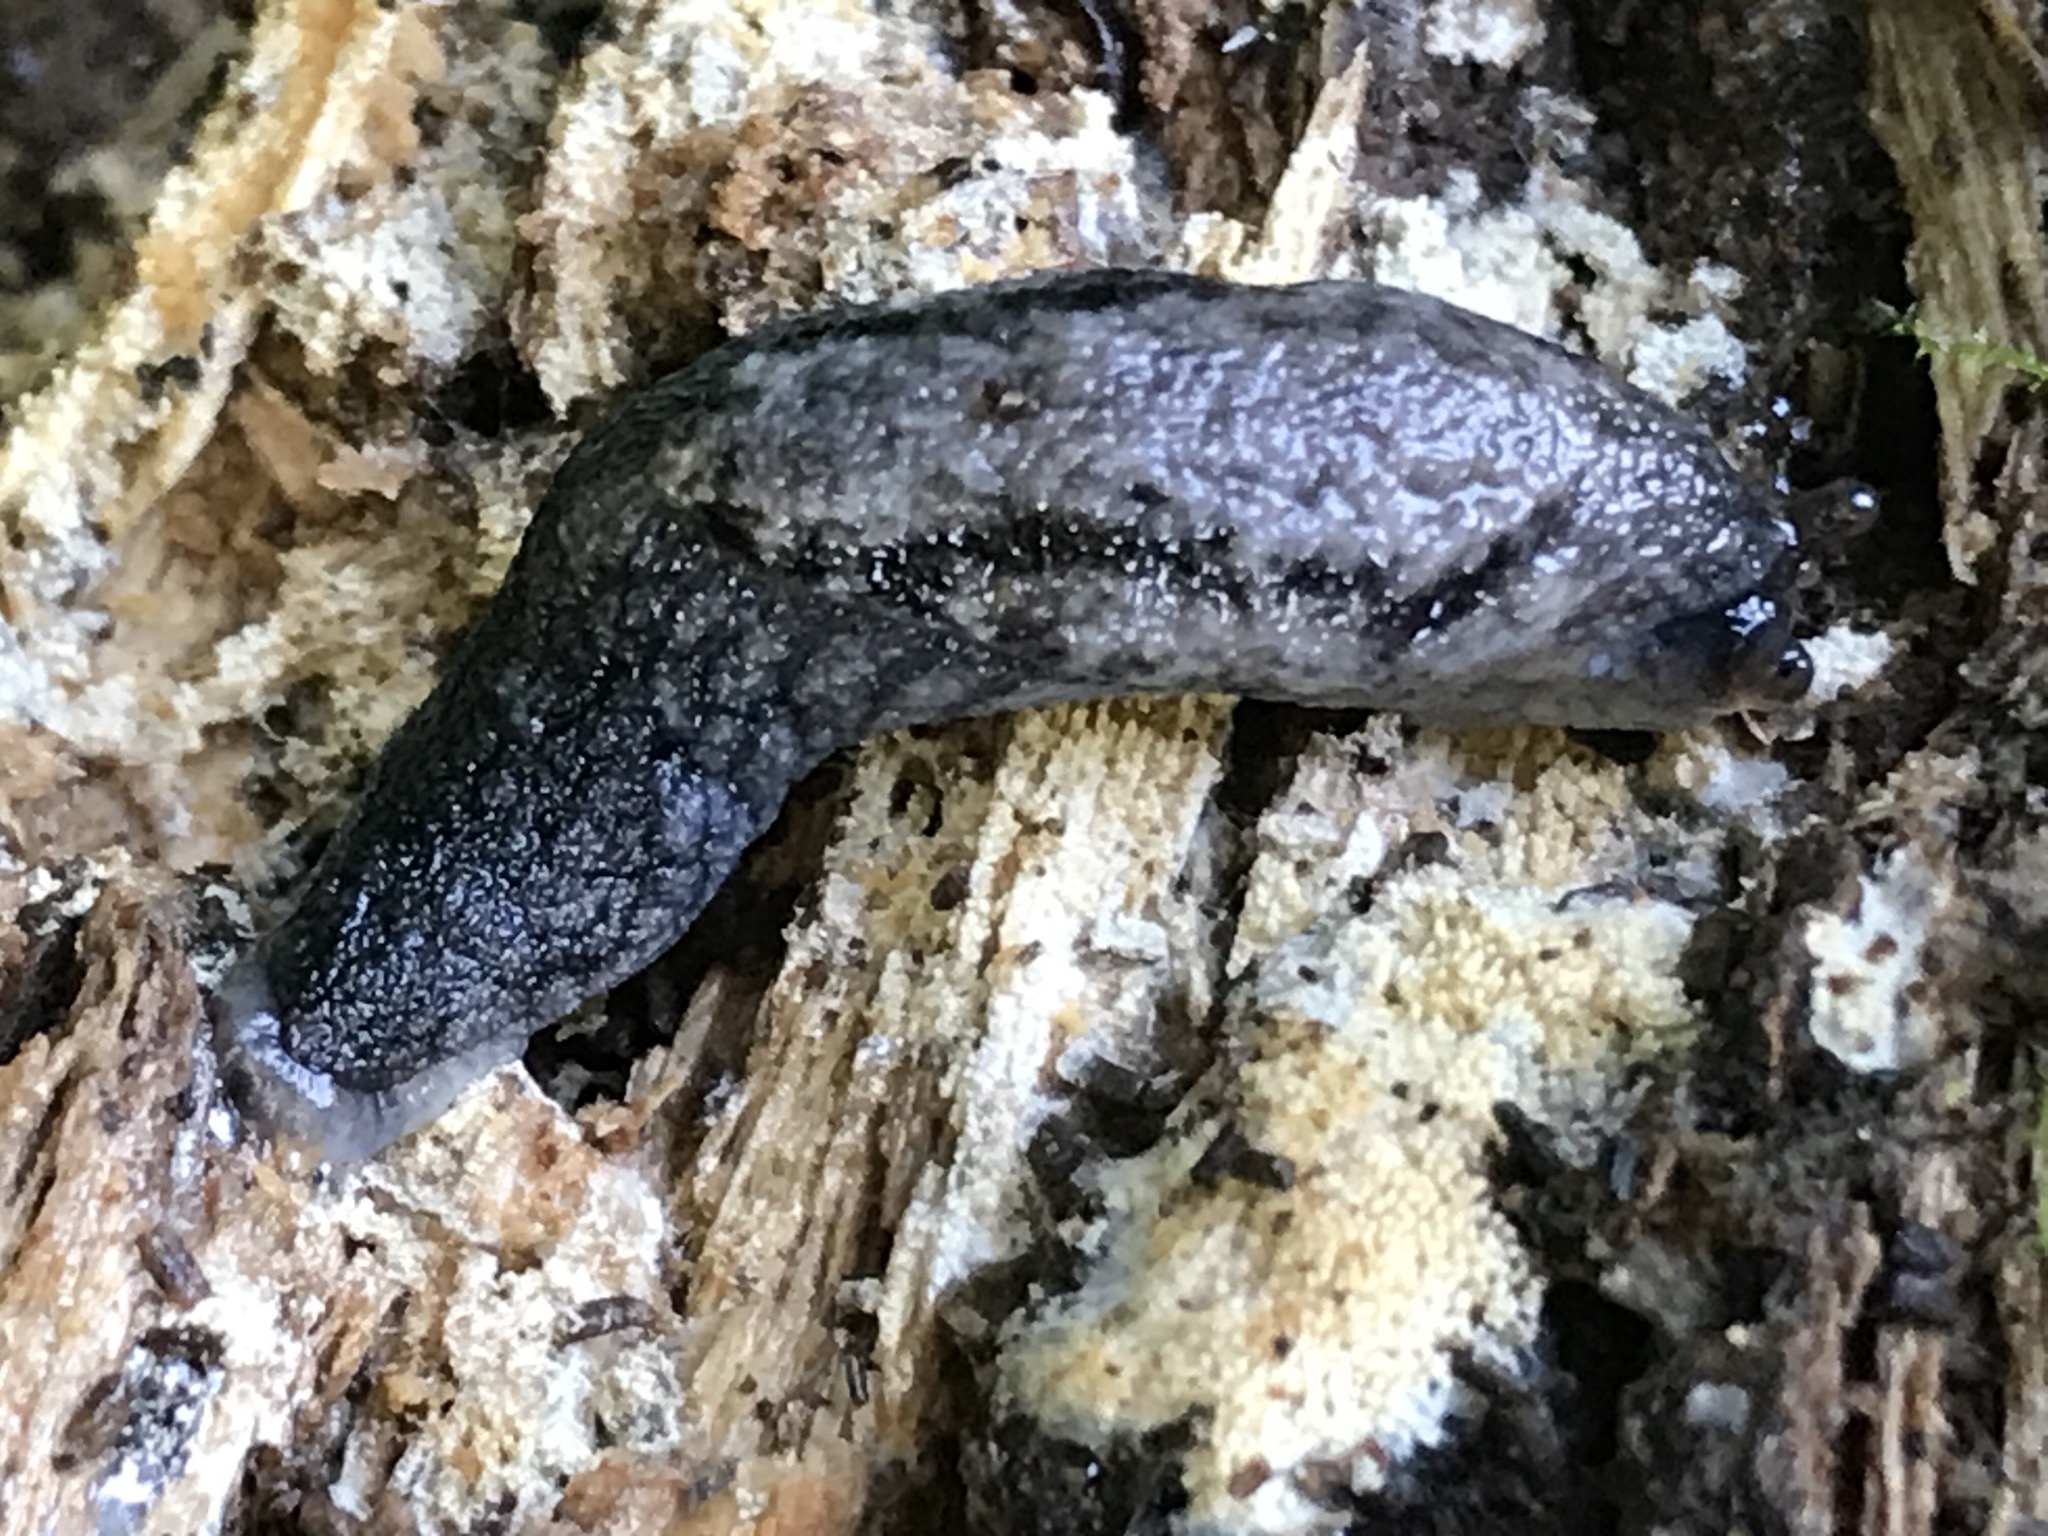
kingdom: Animalia
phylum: Mollusca
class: Gastropoda
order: Stylommatophora
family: Ariolimacidae
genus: Prophysaon
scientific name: Prophysaon andersonii
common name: Reticulate taildropper
